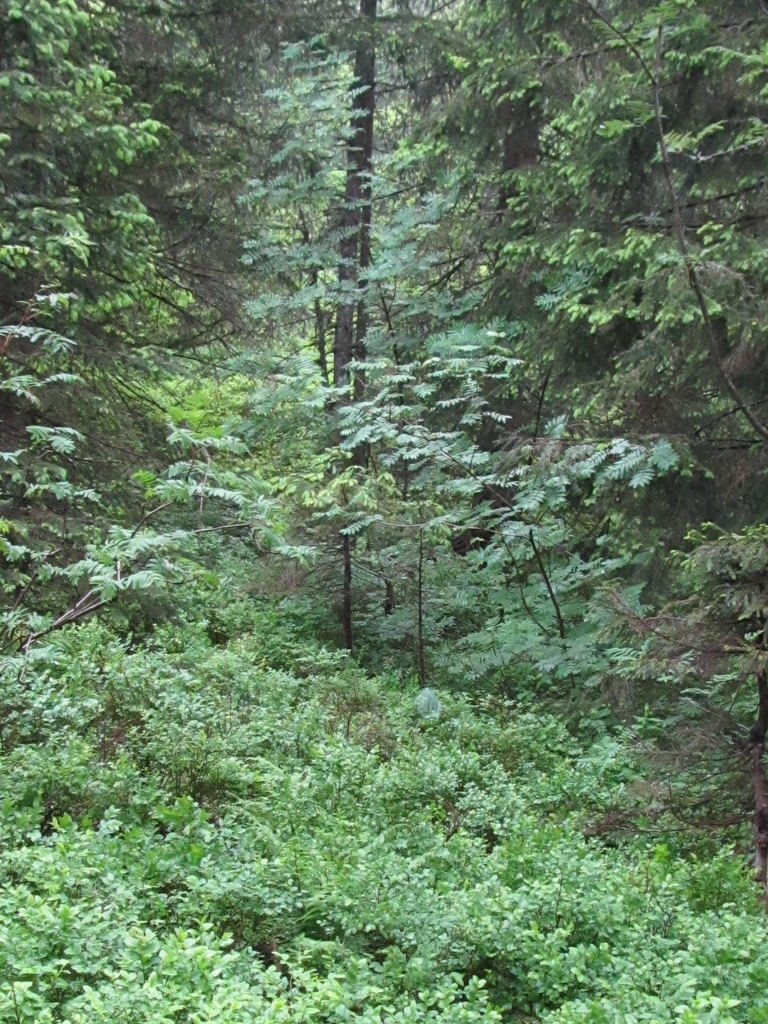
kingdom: Plantae
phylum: Tracheophyta
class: Magnoliopsida
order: Rosales
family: Rosaceae
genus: Sorbus
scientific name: Sorbus aucuparia
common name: Rowan
